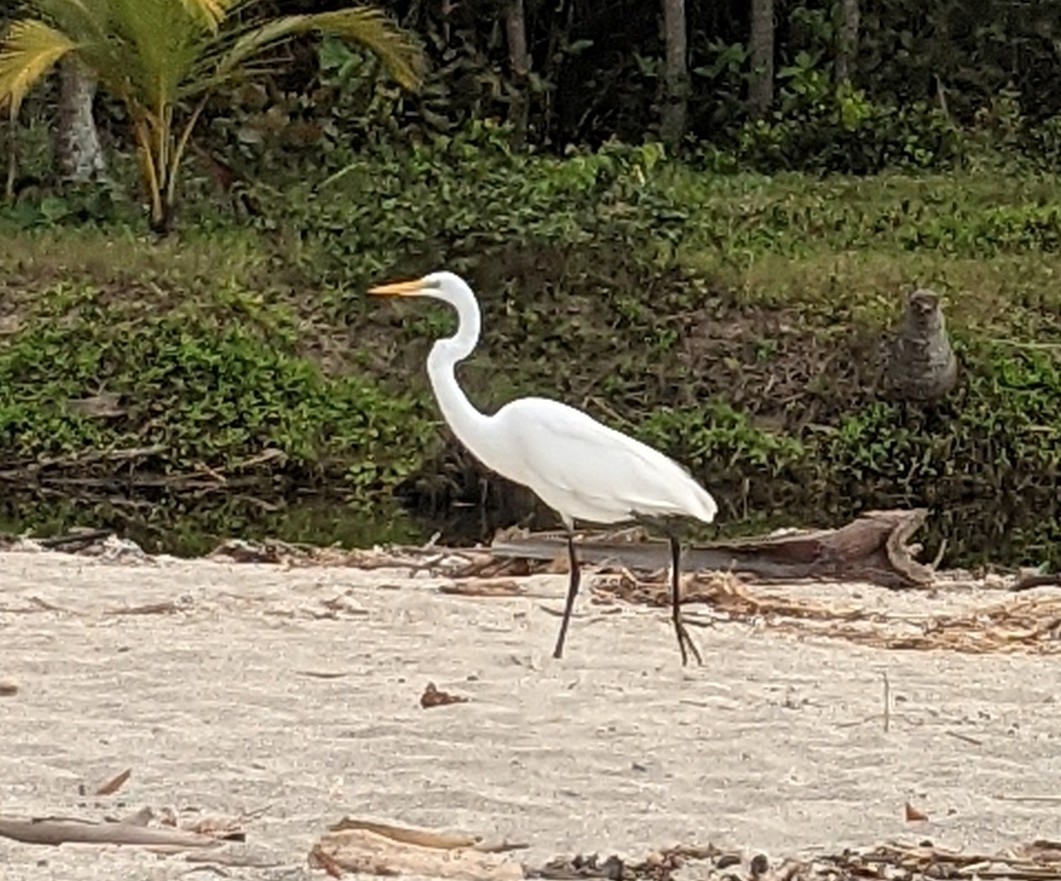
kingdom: Animalia
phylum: Chordata
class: Aves
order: Pelecaniformes
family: Ardeidae
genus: Ardea
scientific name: Ardea alba
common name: Great egret
